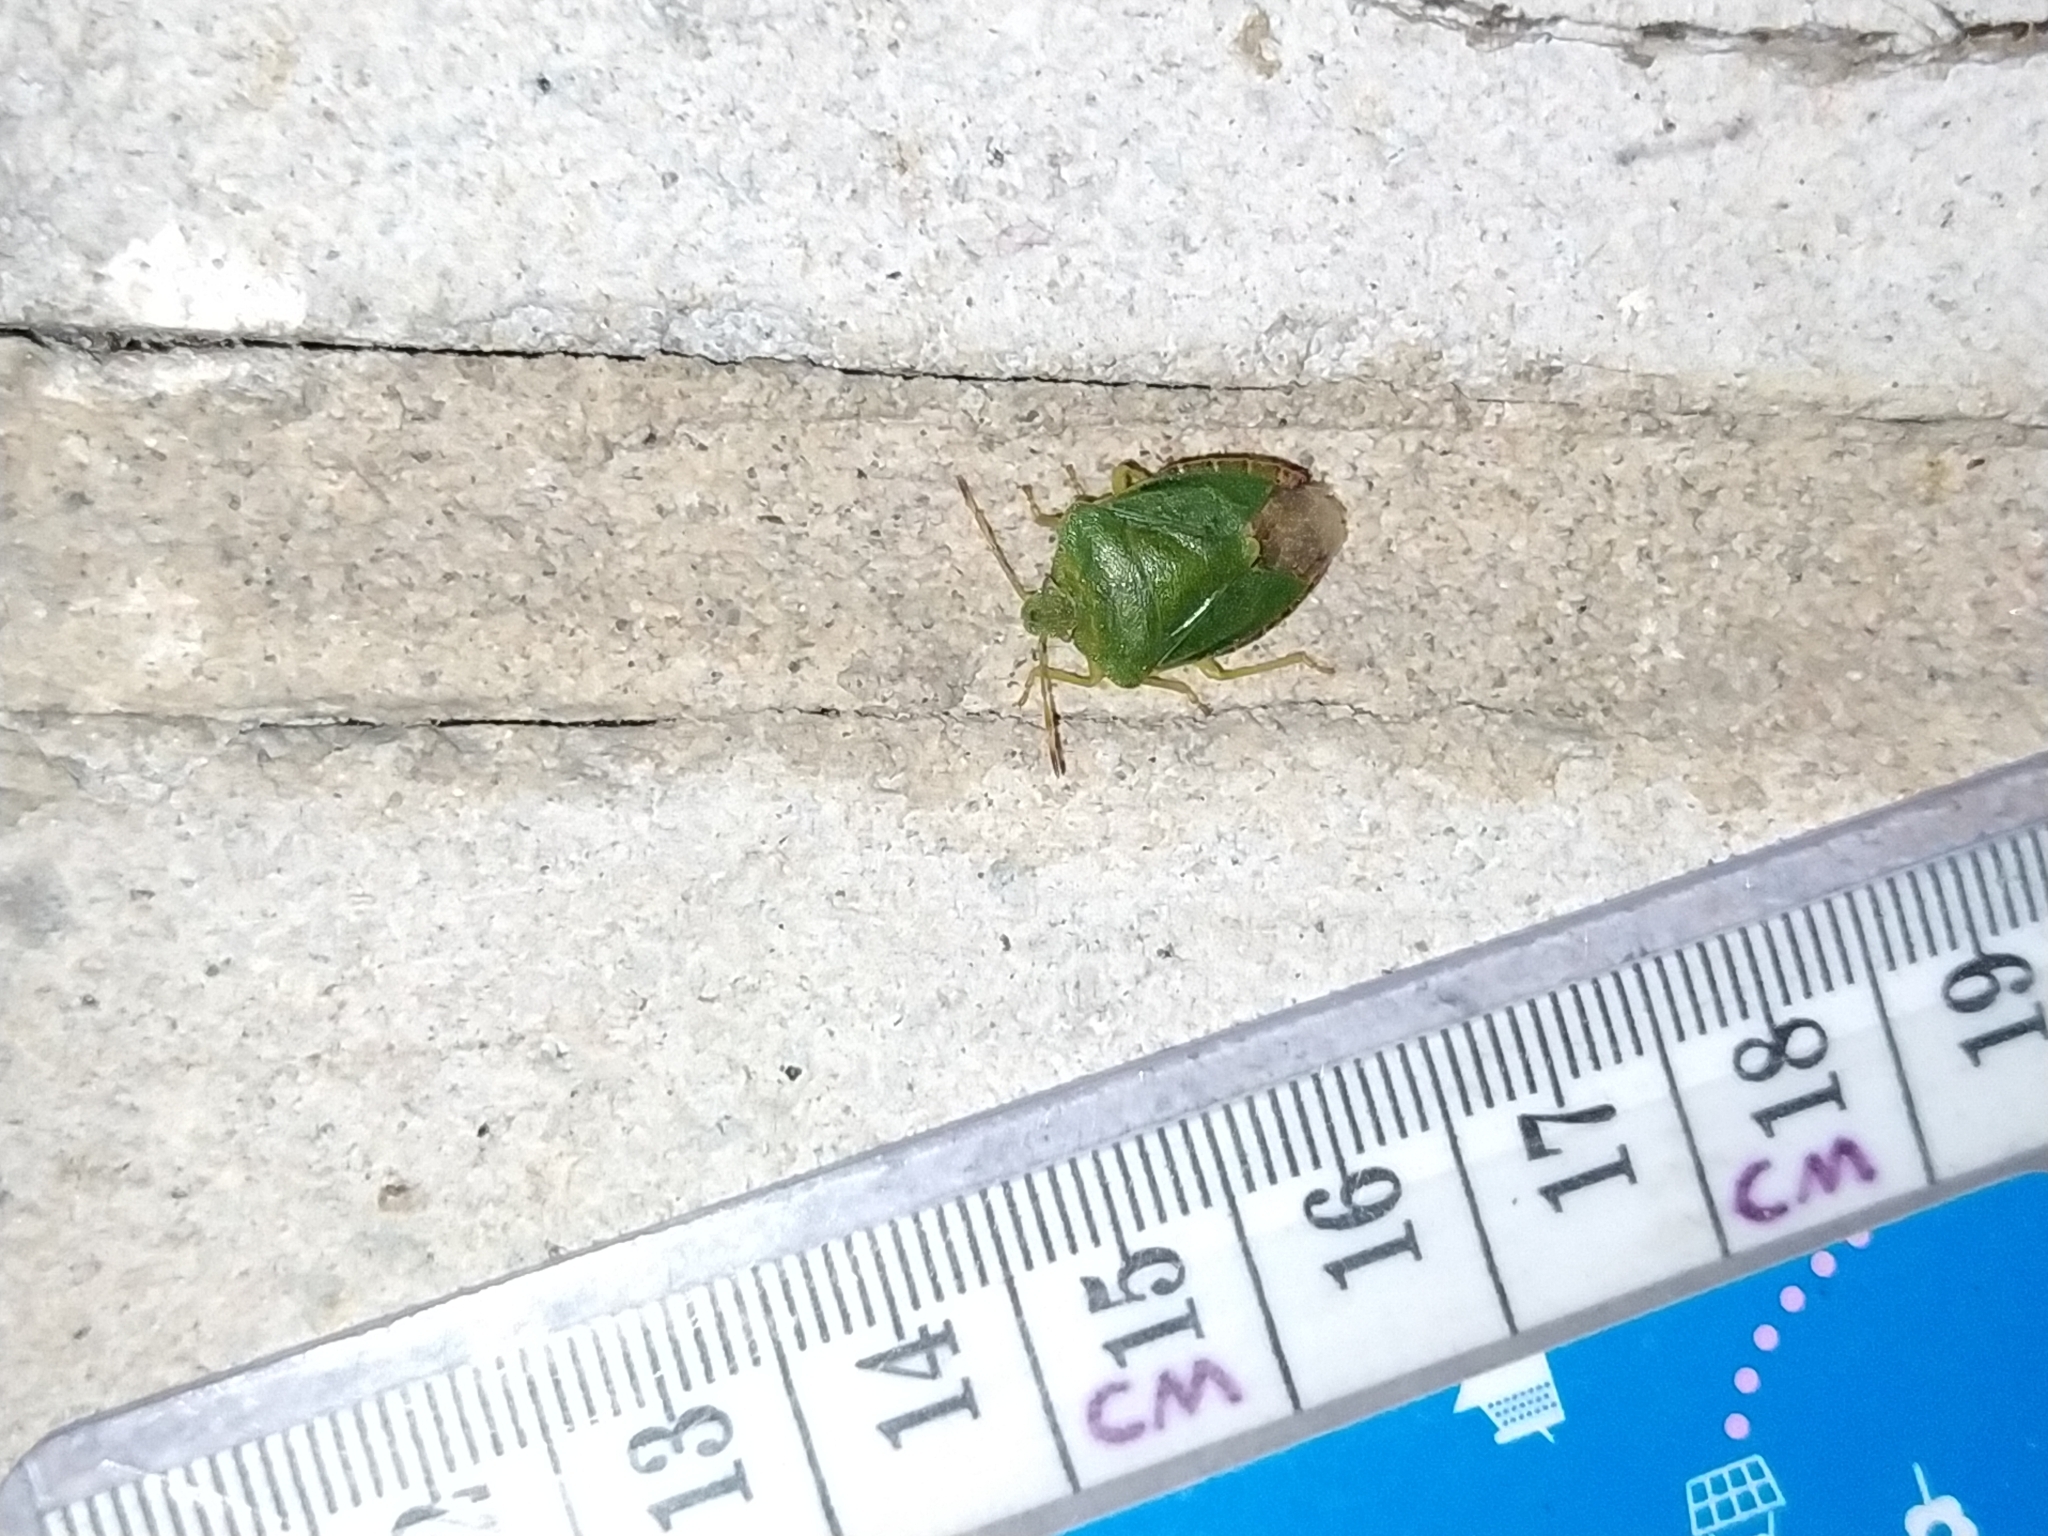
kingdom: Animalia
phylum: Arthropoda
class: Insecta
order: Hemiptera
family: Pentatomidae
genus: Palomena
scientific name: Palomena prasina
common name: Green shieldbug
